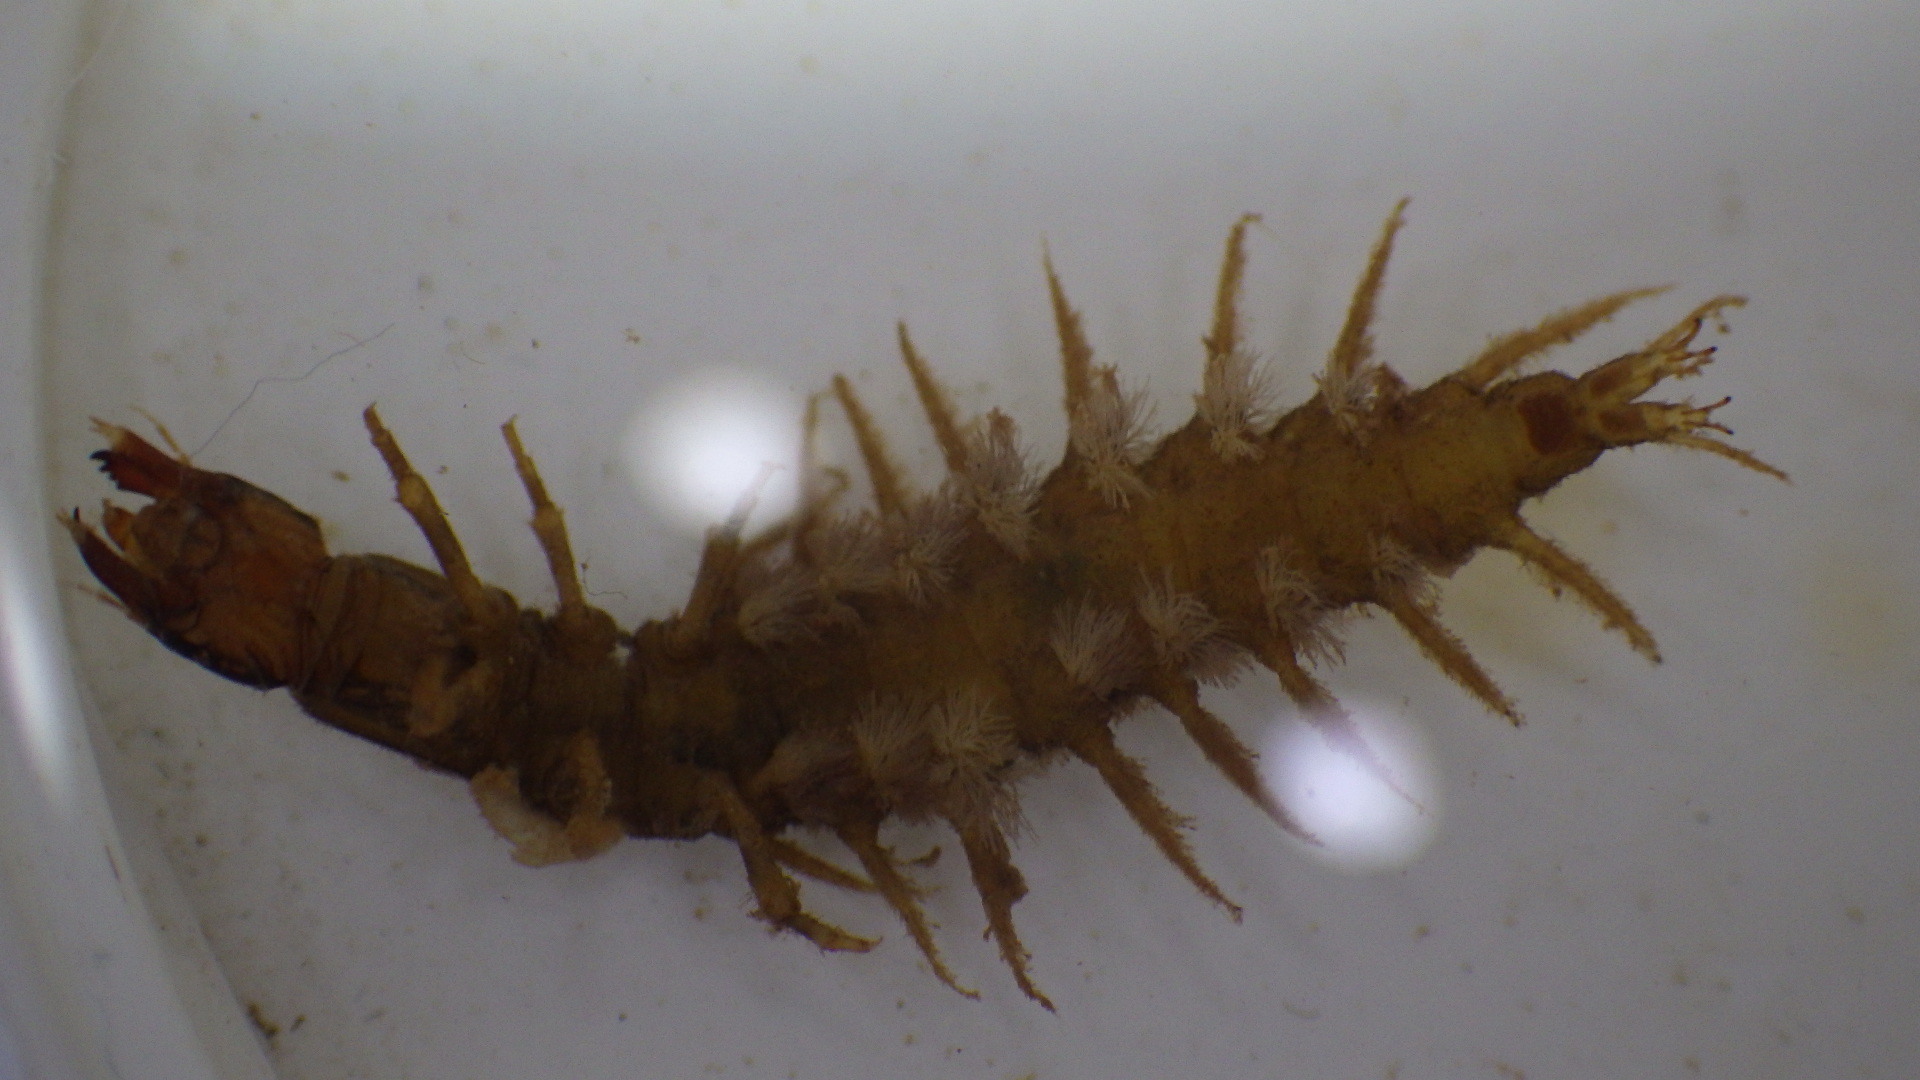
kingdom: Animalia
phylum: Arthropoda
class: Insecta
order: Megaloptera
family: Corydalidae
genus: Corydalus
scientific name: Corydalus cornutus
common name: Dobsonfly
